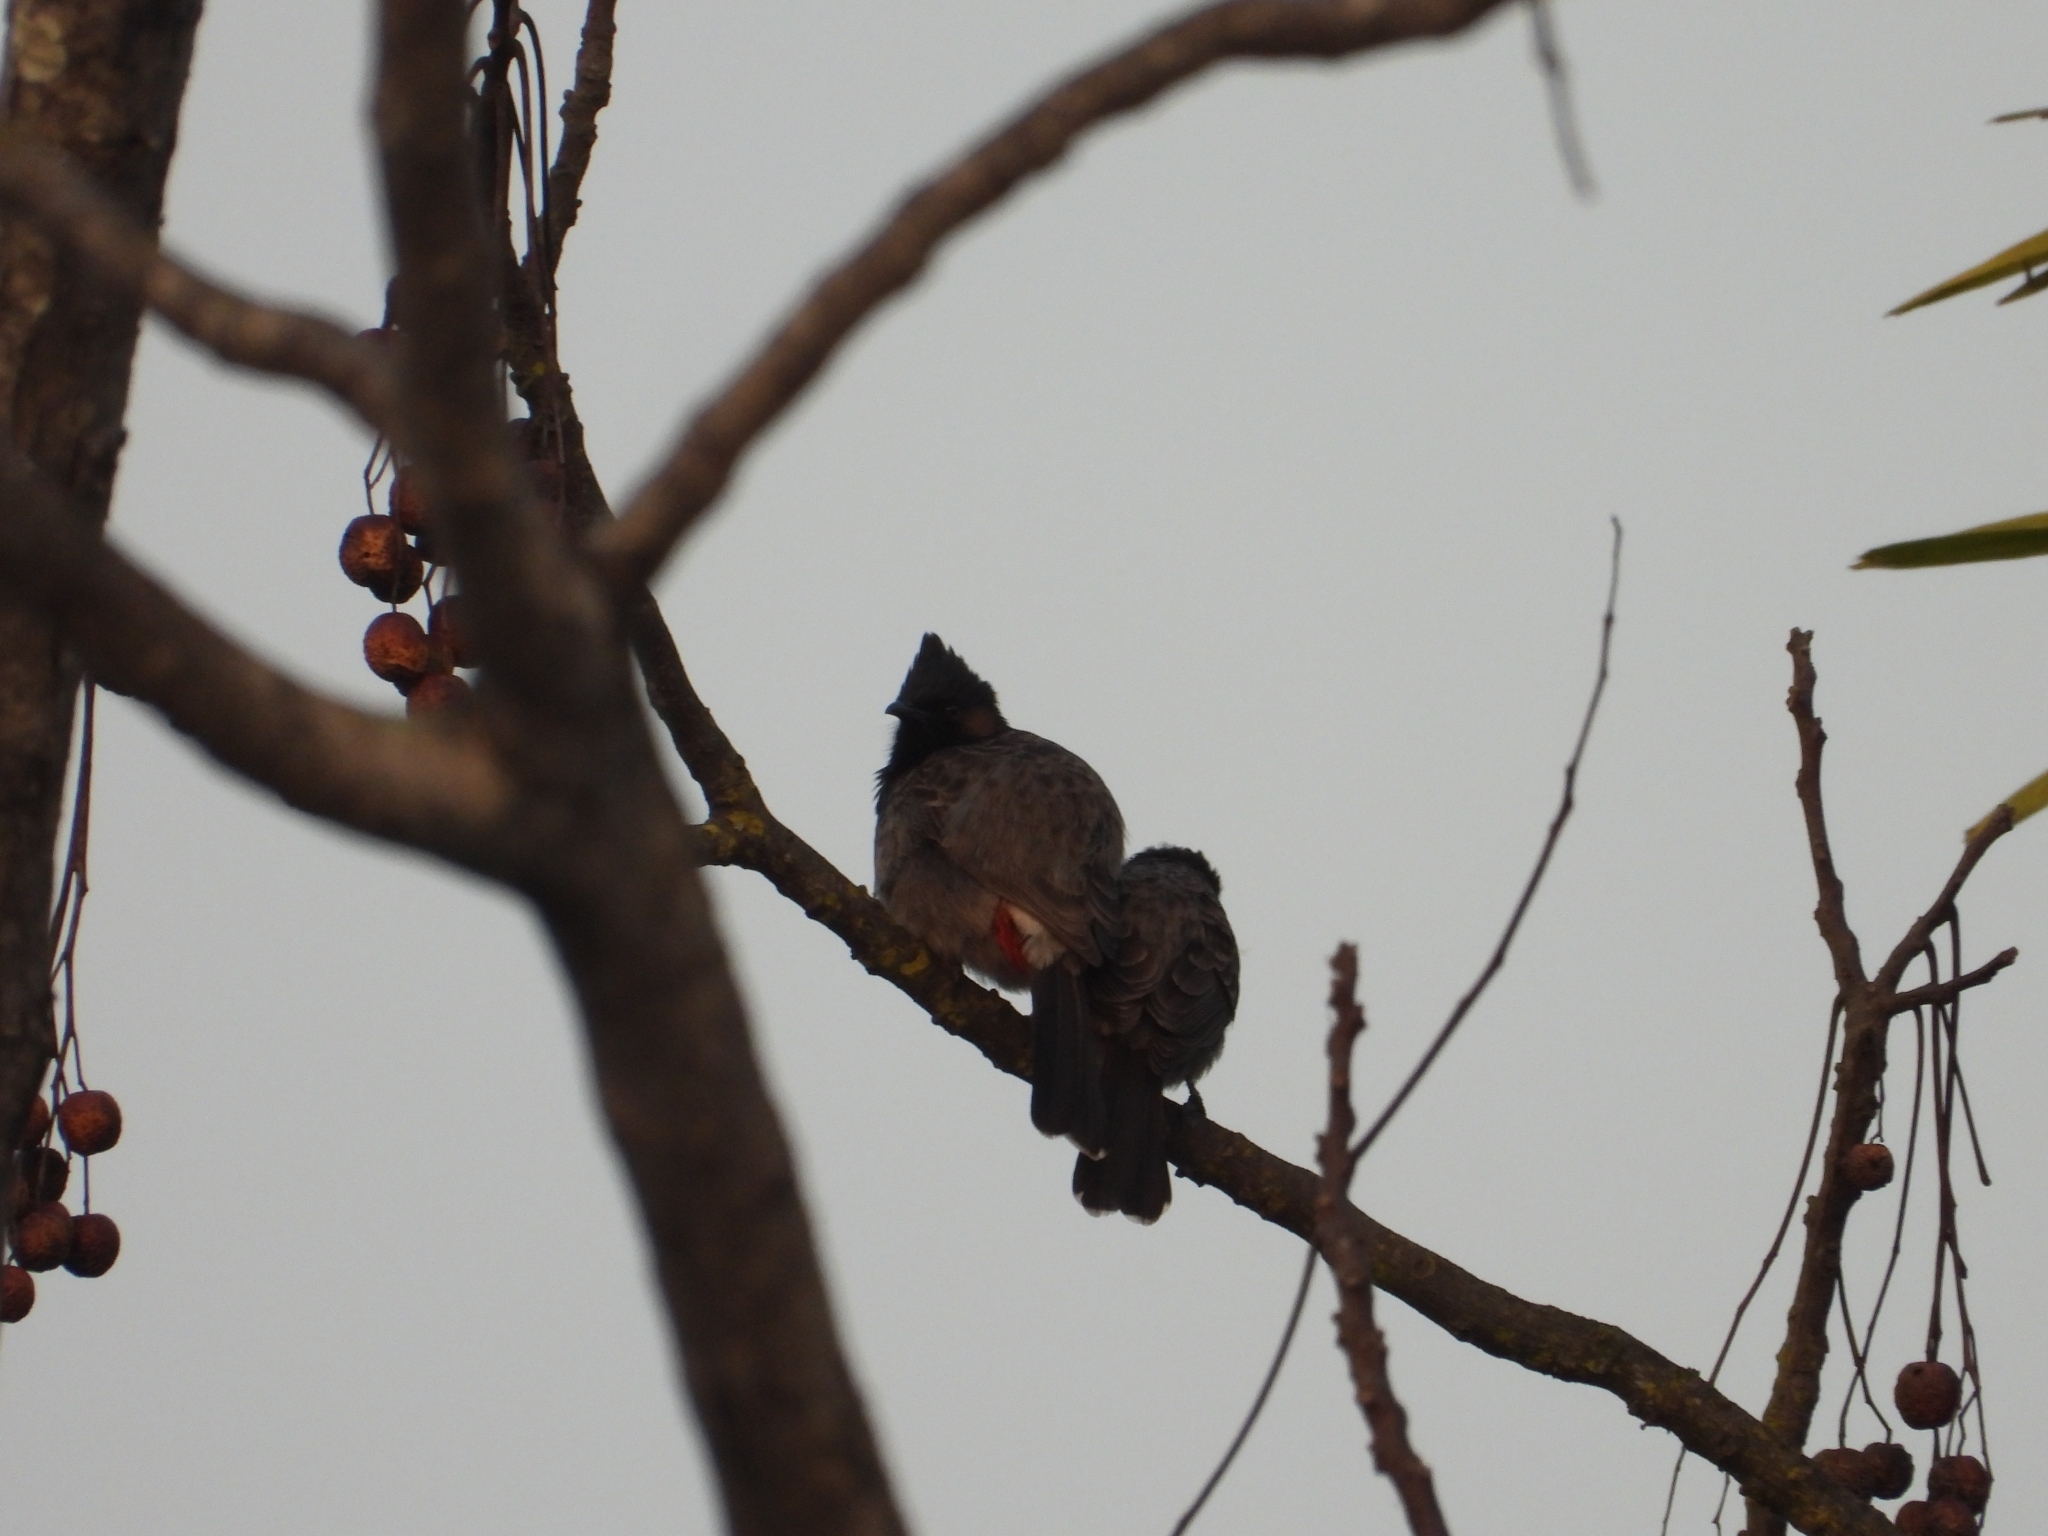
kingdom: Animalia
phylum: Chordata
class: Aves
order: Passeriformes
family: Pycnonotidae
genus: Pycnonotus
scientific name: Pycnonotus cafer
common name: Red-vented bulbul
